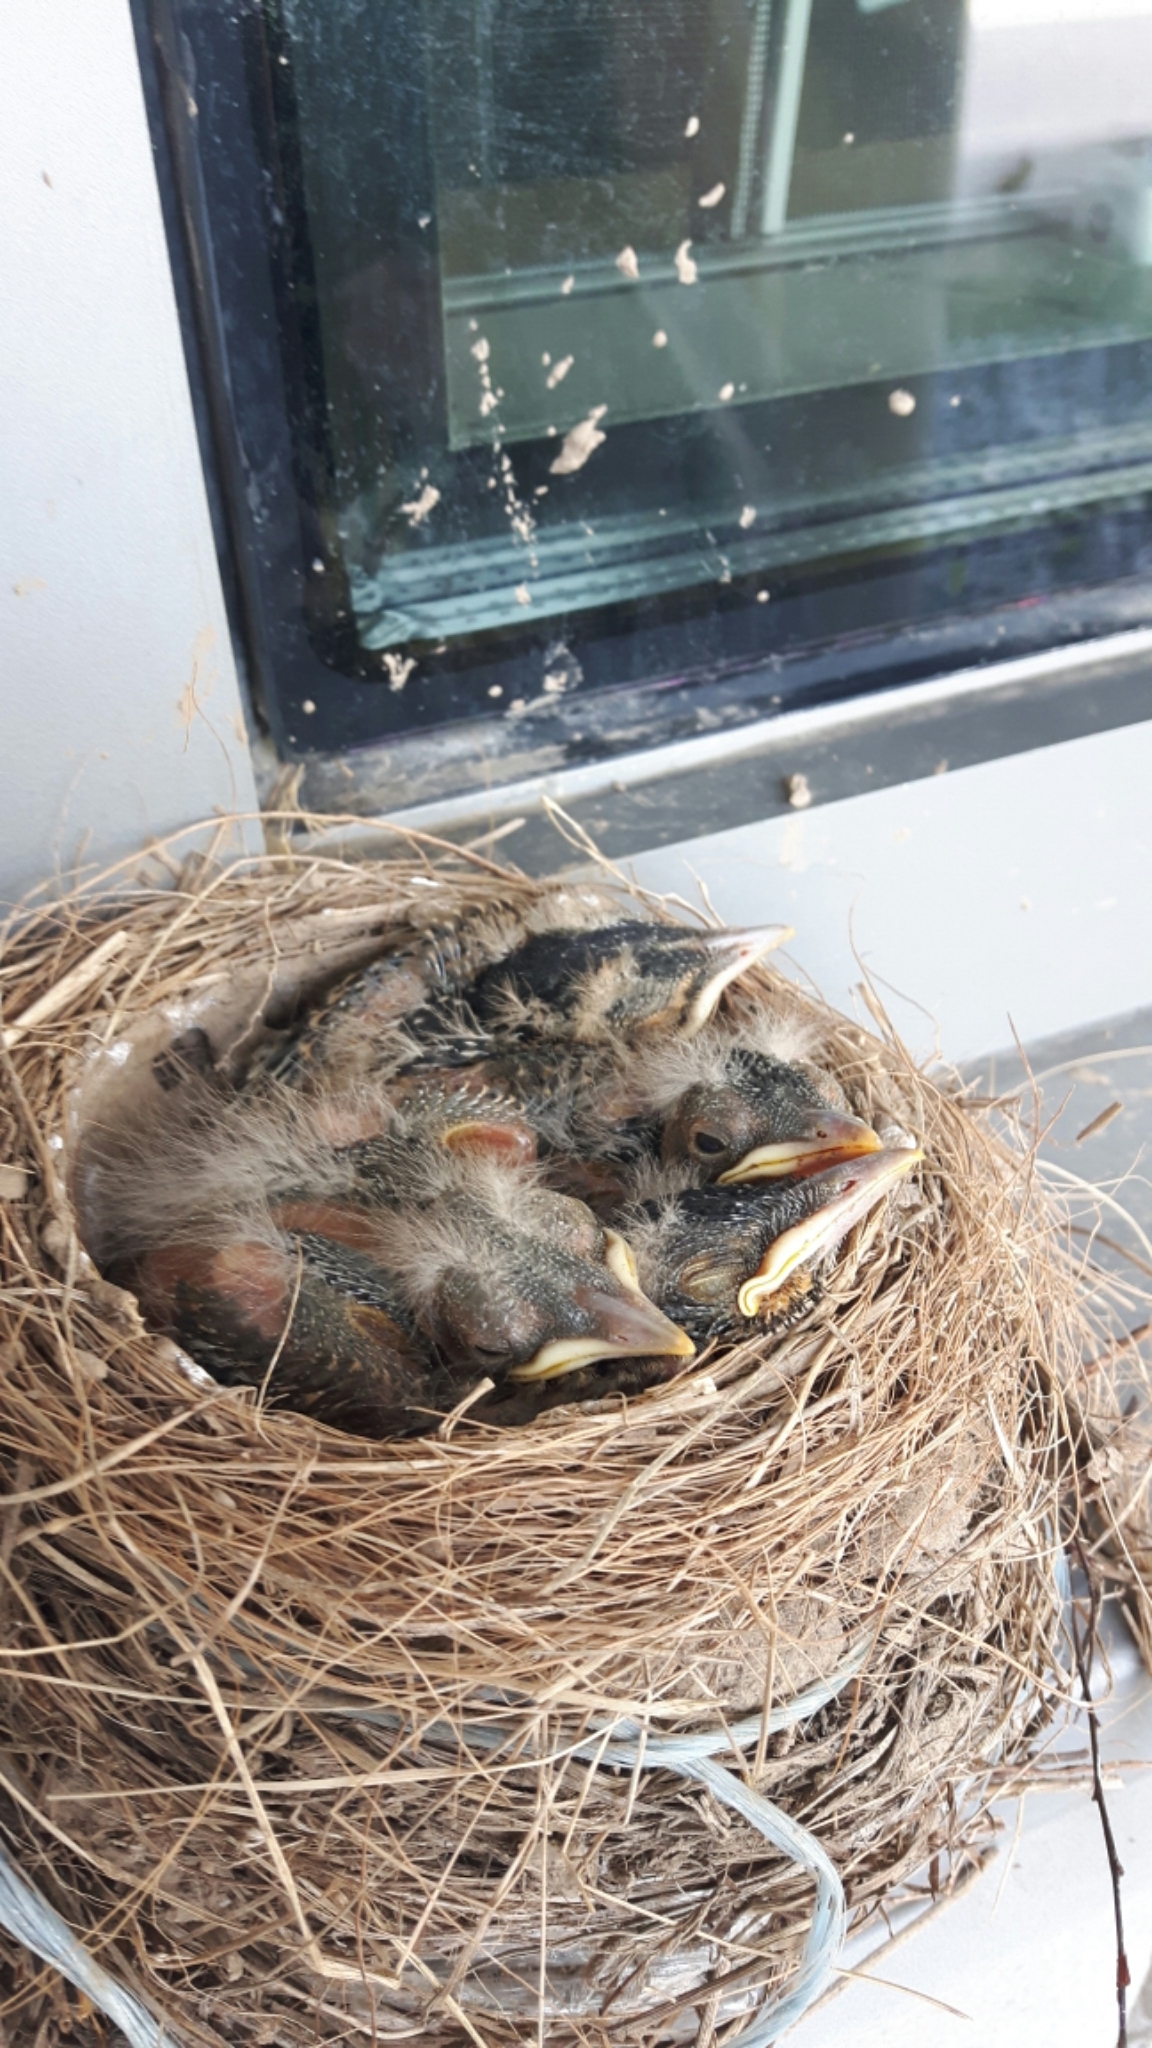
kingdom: Animalia
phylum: Chordata
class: Aves
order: Passeriformes
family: Turdidae
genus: Turdus
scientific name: Turdus migratorius
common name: American robin
